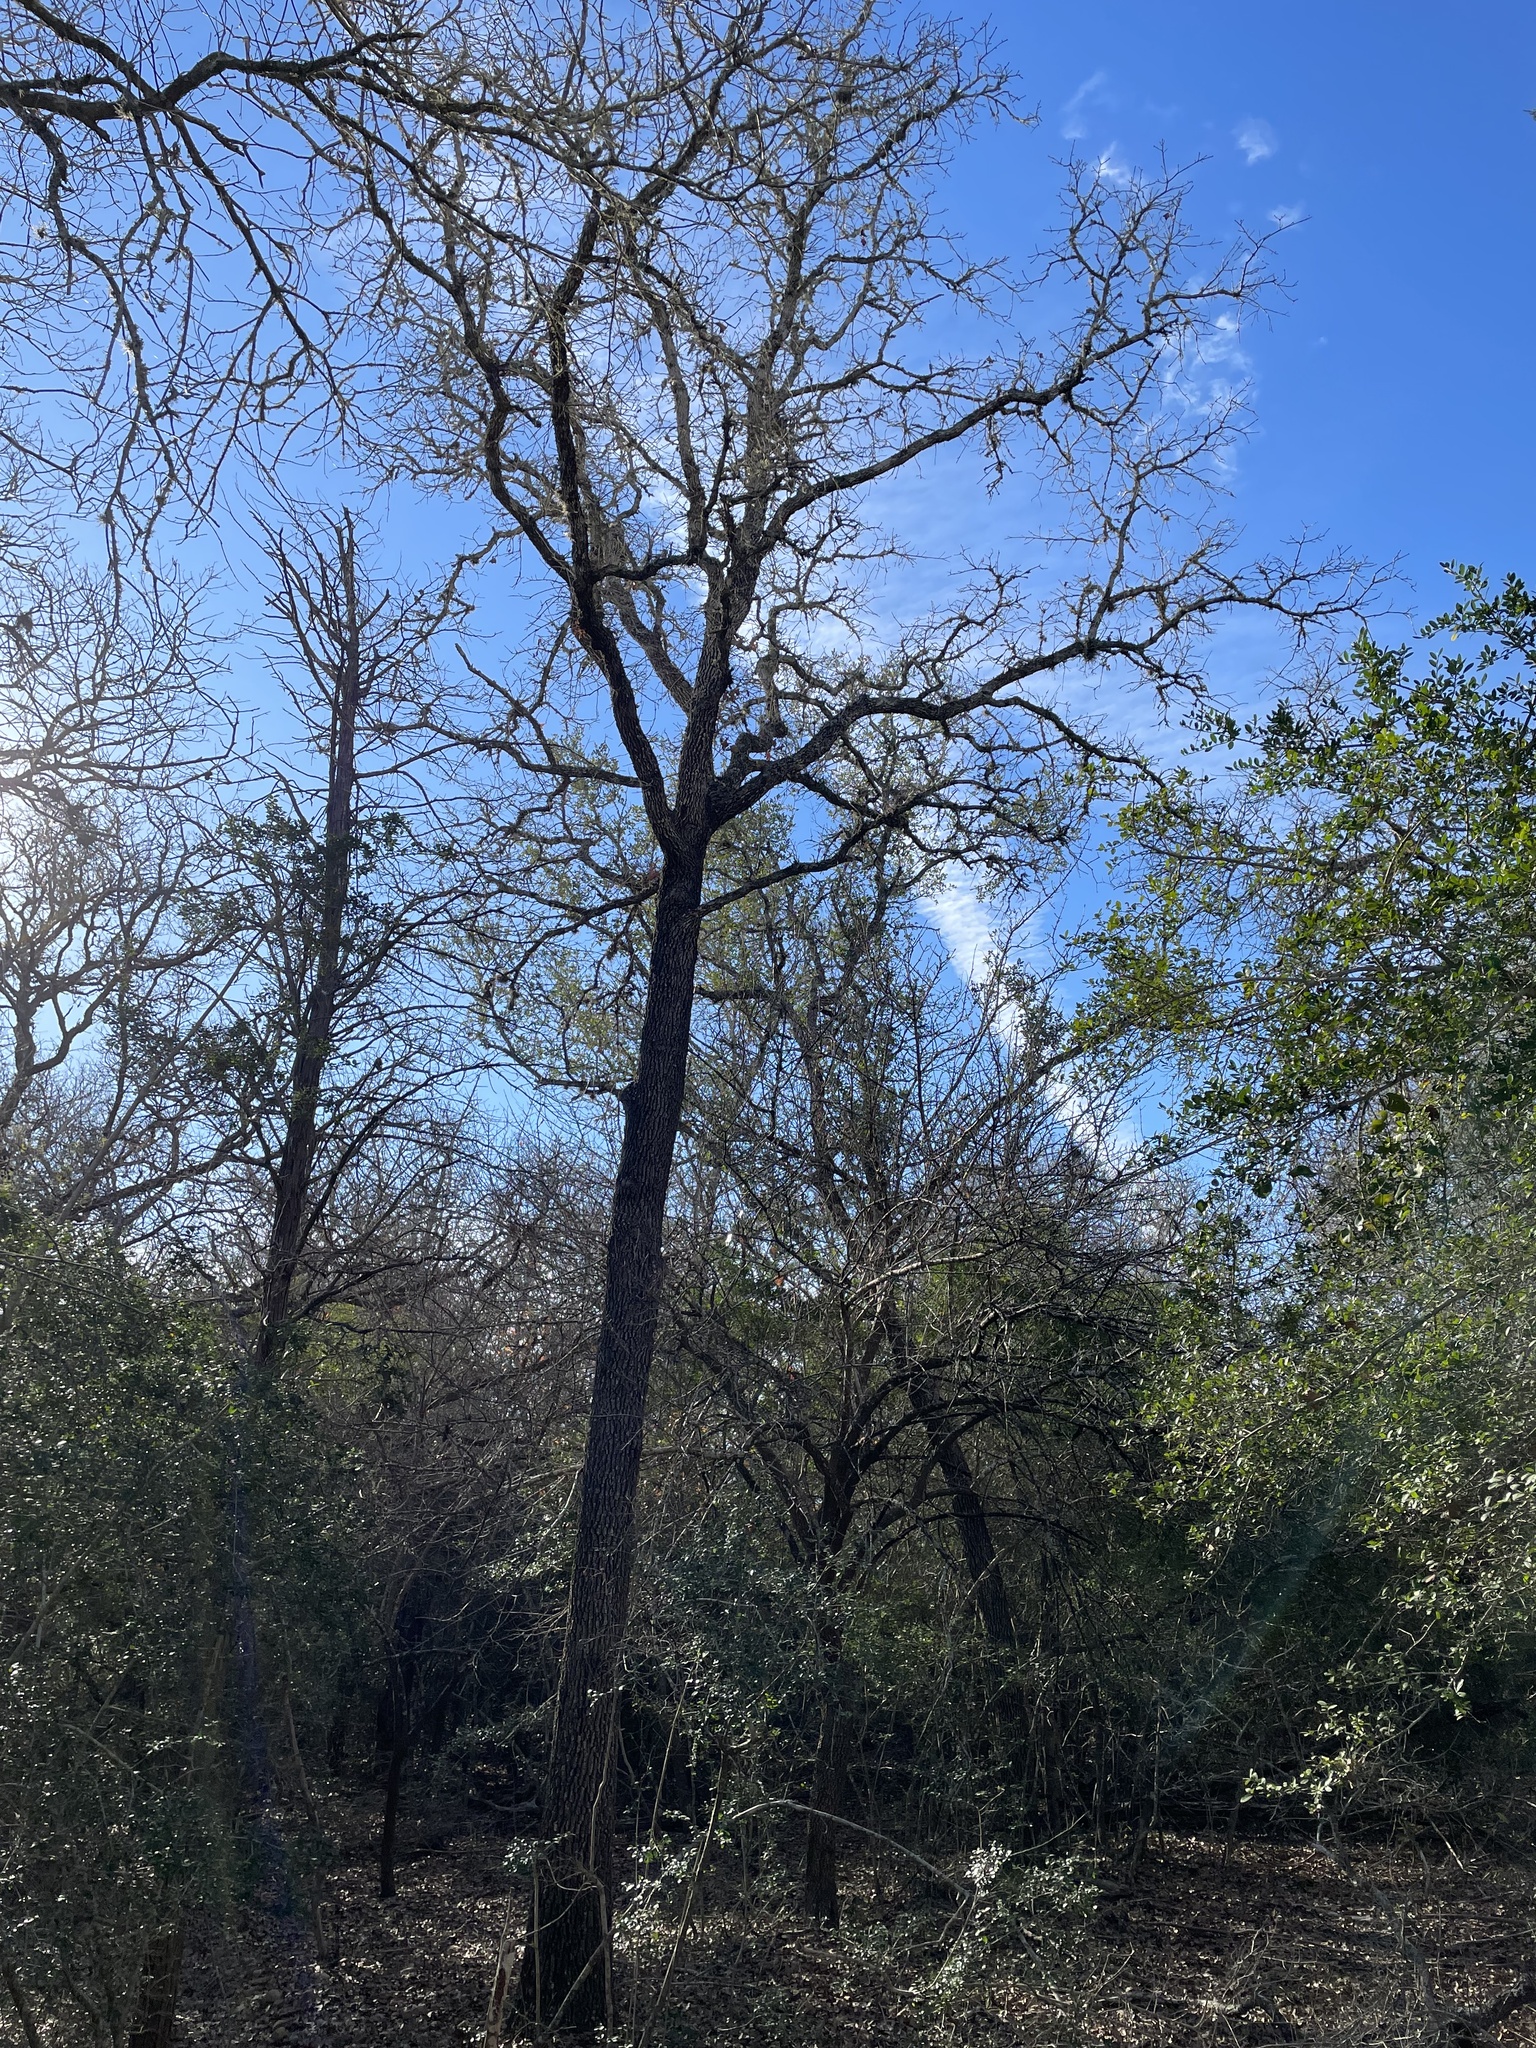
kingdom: Plantae
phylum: Tracheophyta
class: Magnoliopsida
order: Fagales
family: Fagaceae
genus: Quercus
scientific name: Quercus stellata
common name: Post oak
